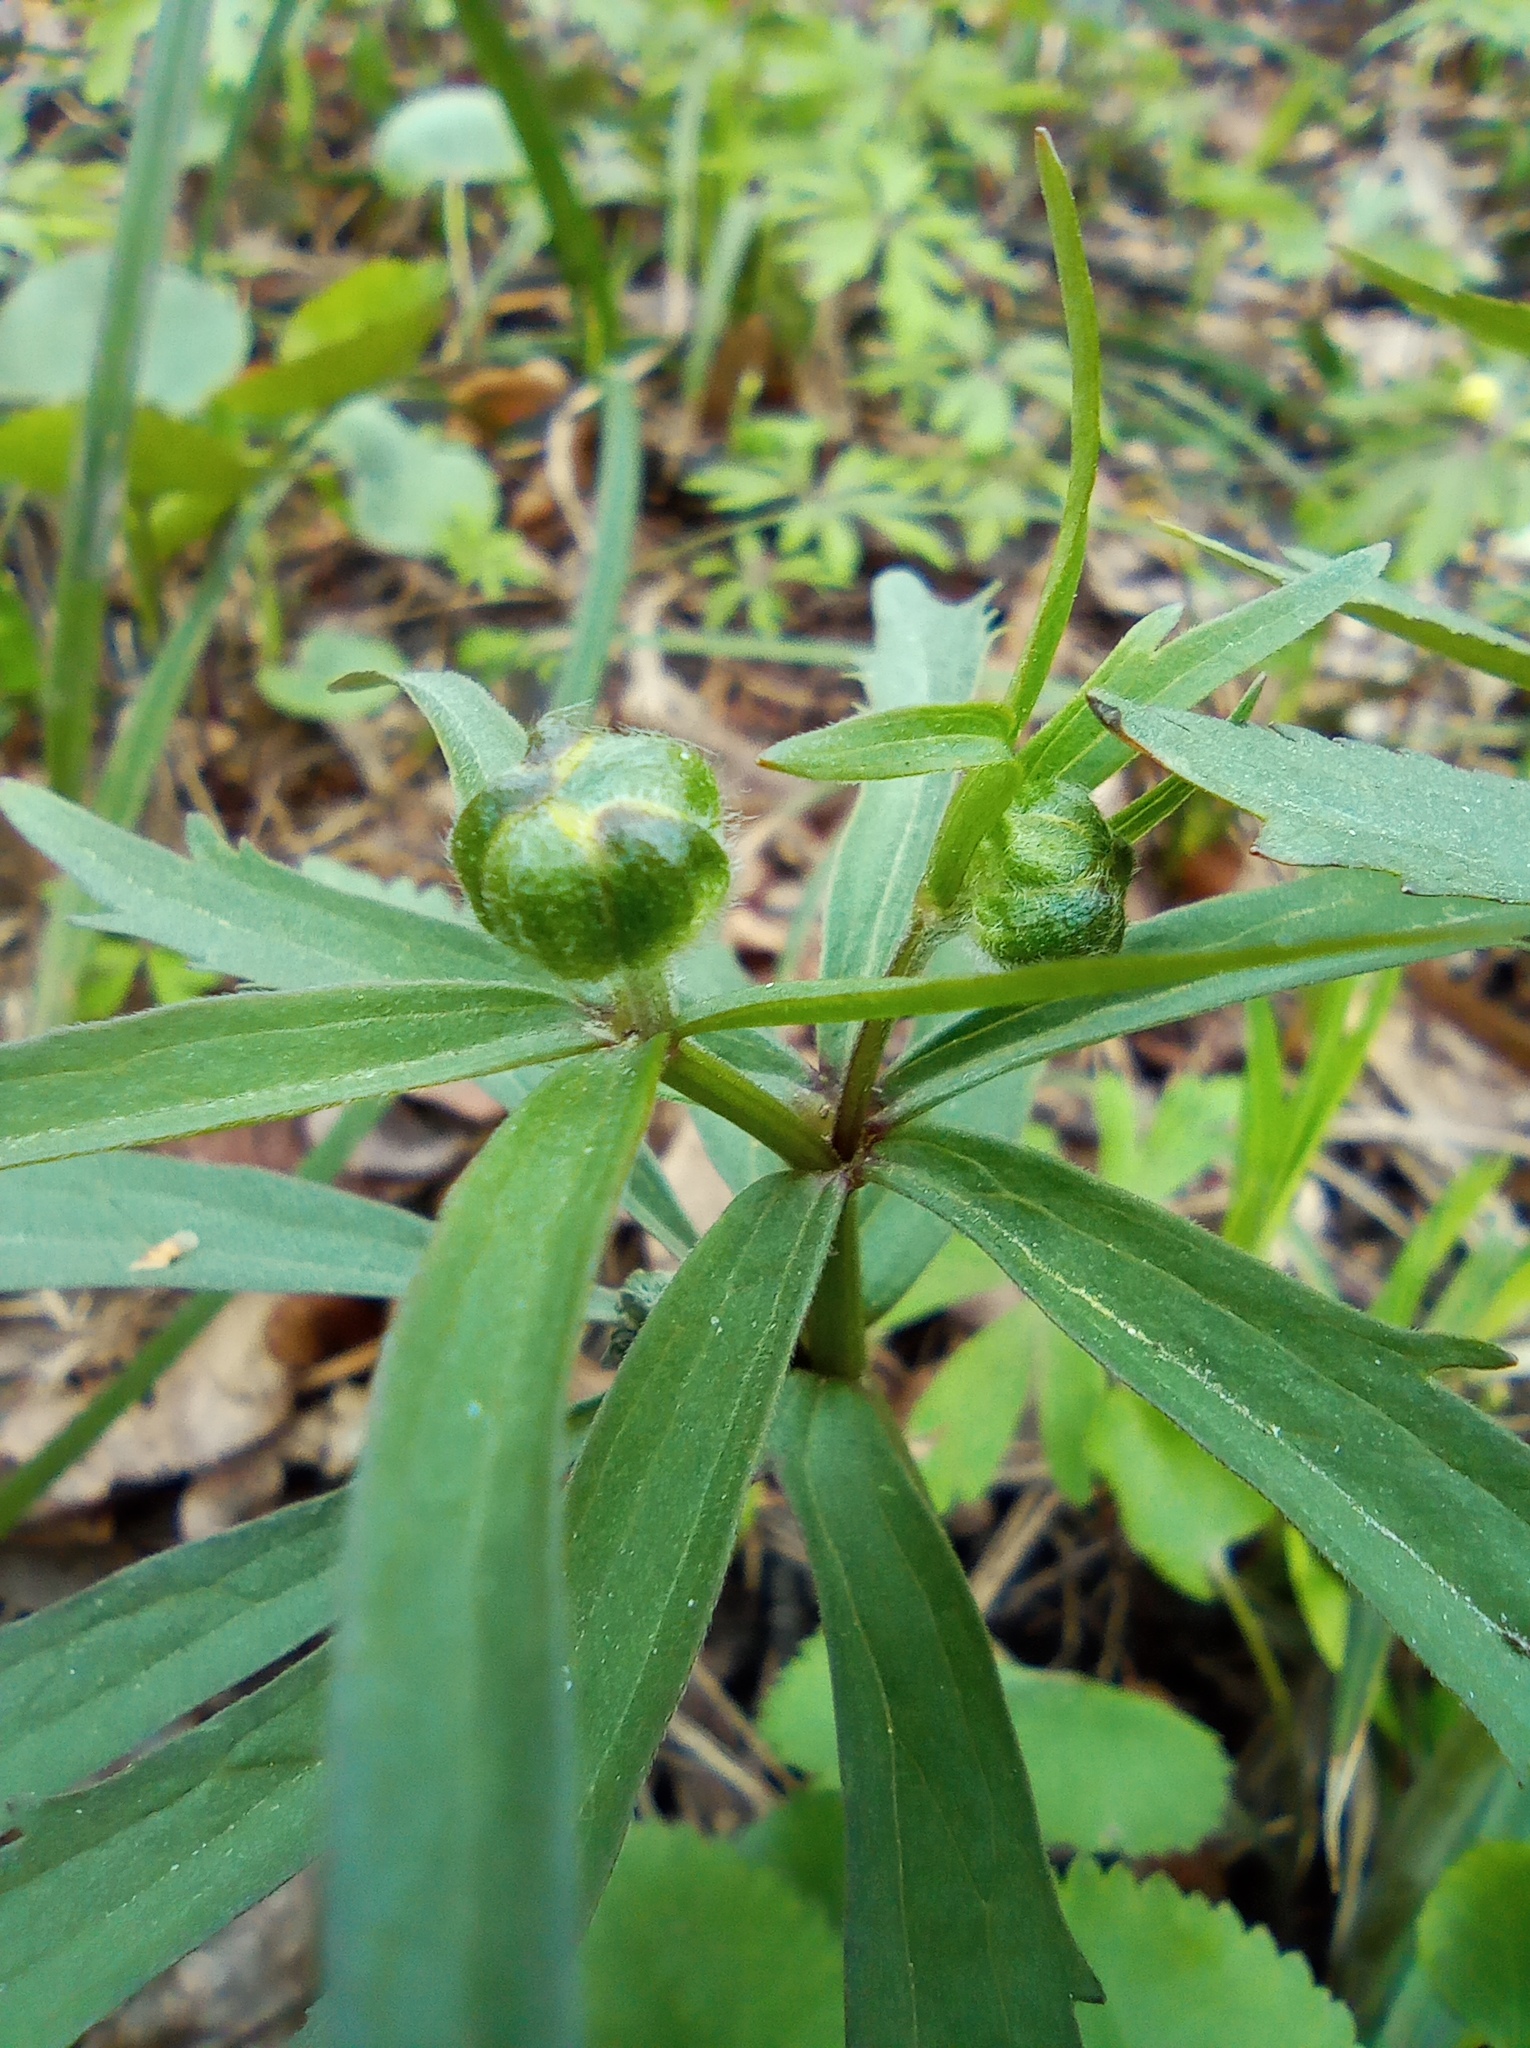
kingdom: Plantae
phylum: Tracheophyta
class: Magnoliopsida
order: Ranunculales
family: Ranunculaceae
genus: Ranunculus
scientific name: Ranunculus cassubicus
